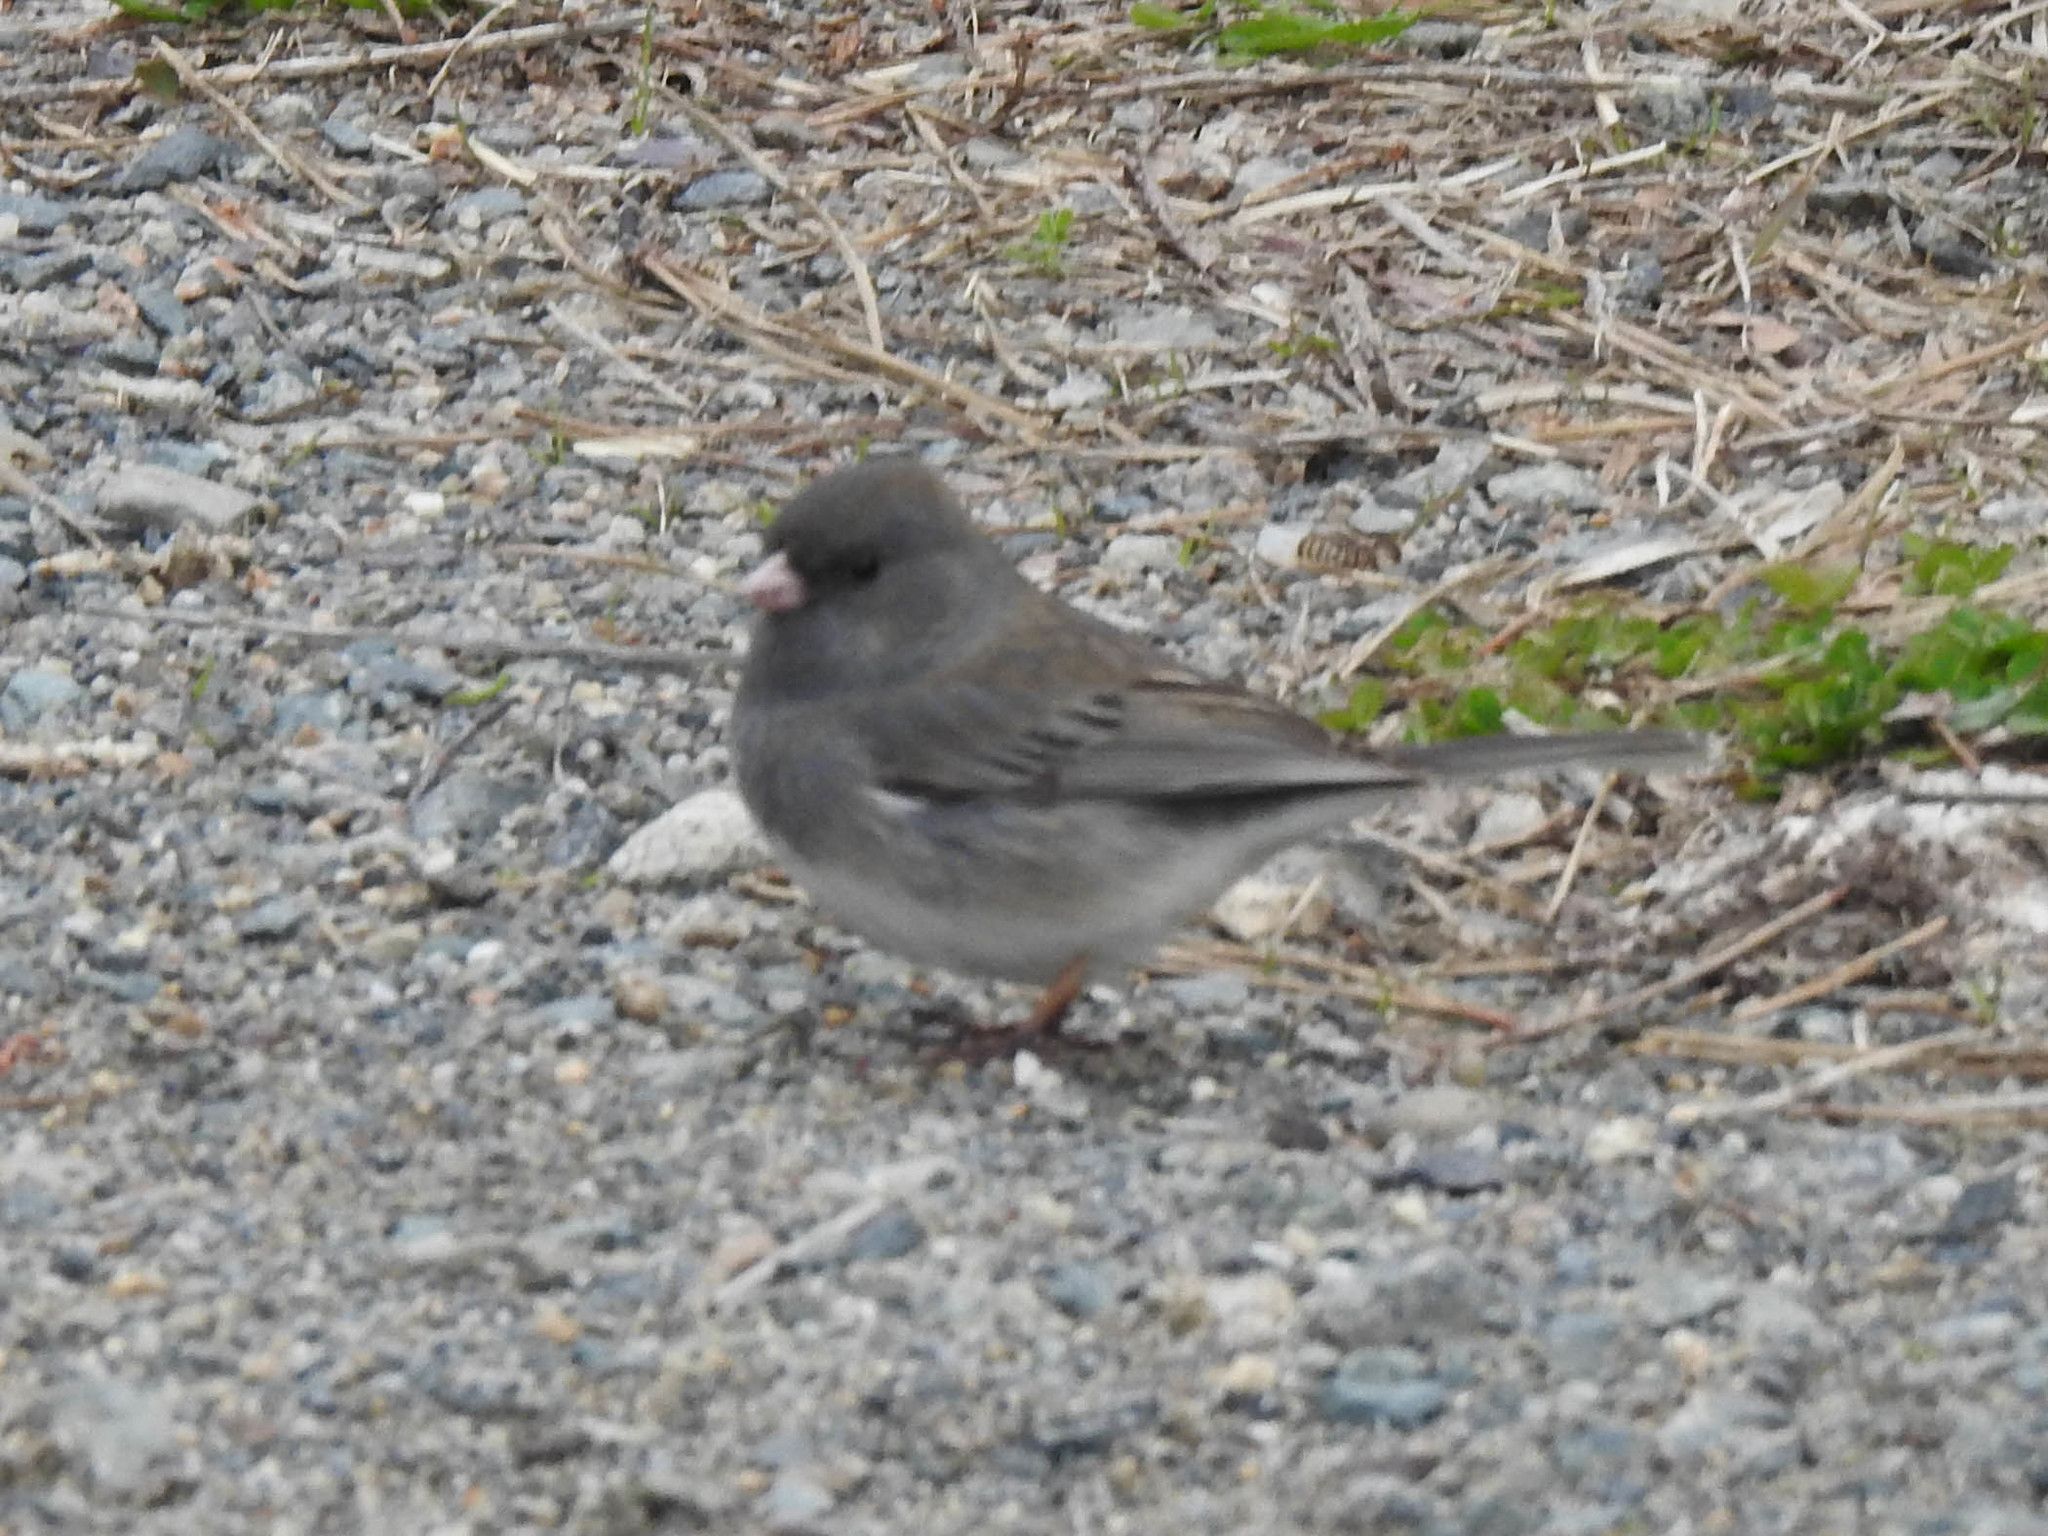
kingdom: Animalia
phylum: Chordata
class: Aves
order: Passeriformes
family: Passerellidae
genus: Junco
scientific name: Junco hyemalis
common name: Dark-eyed junco
